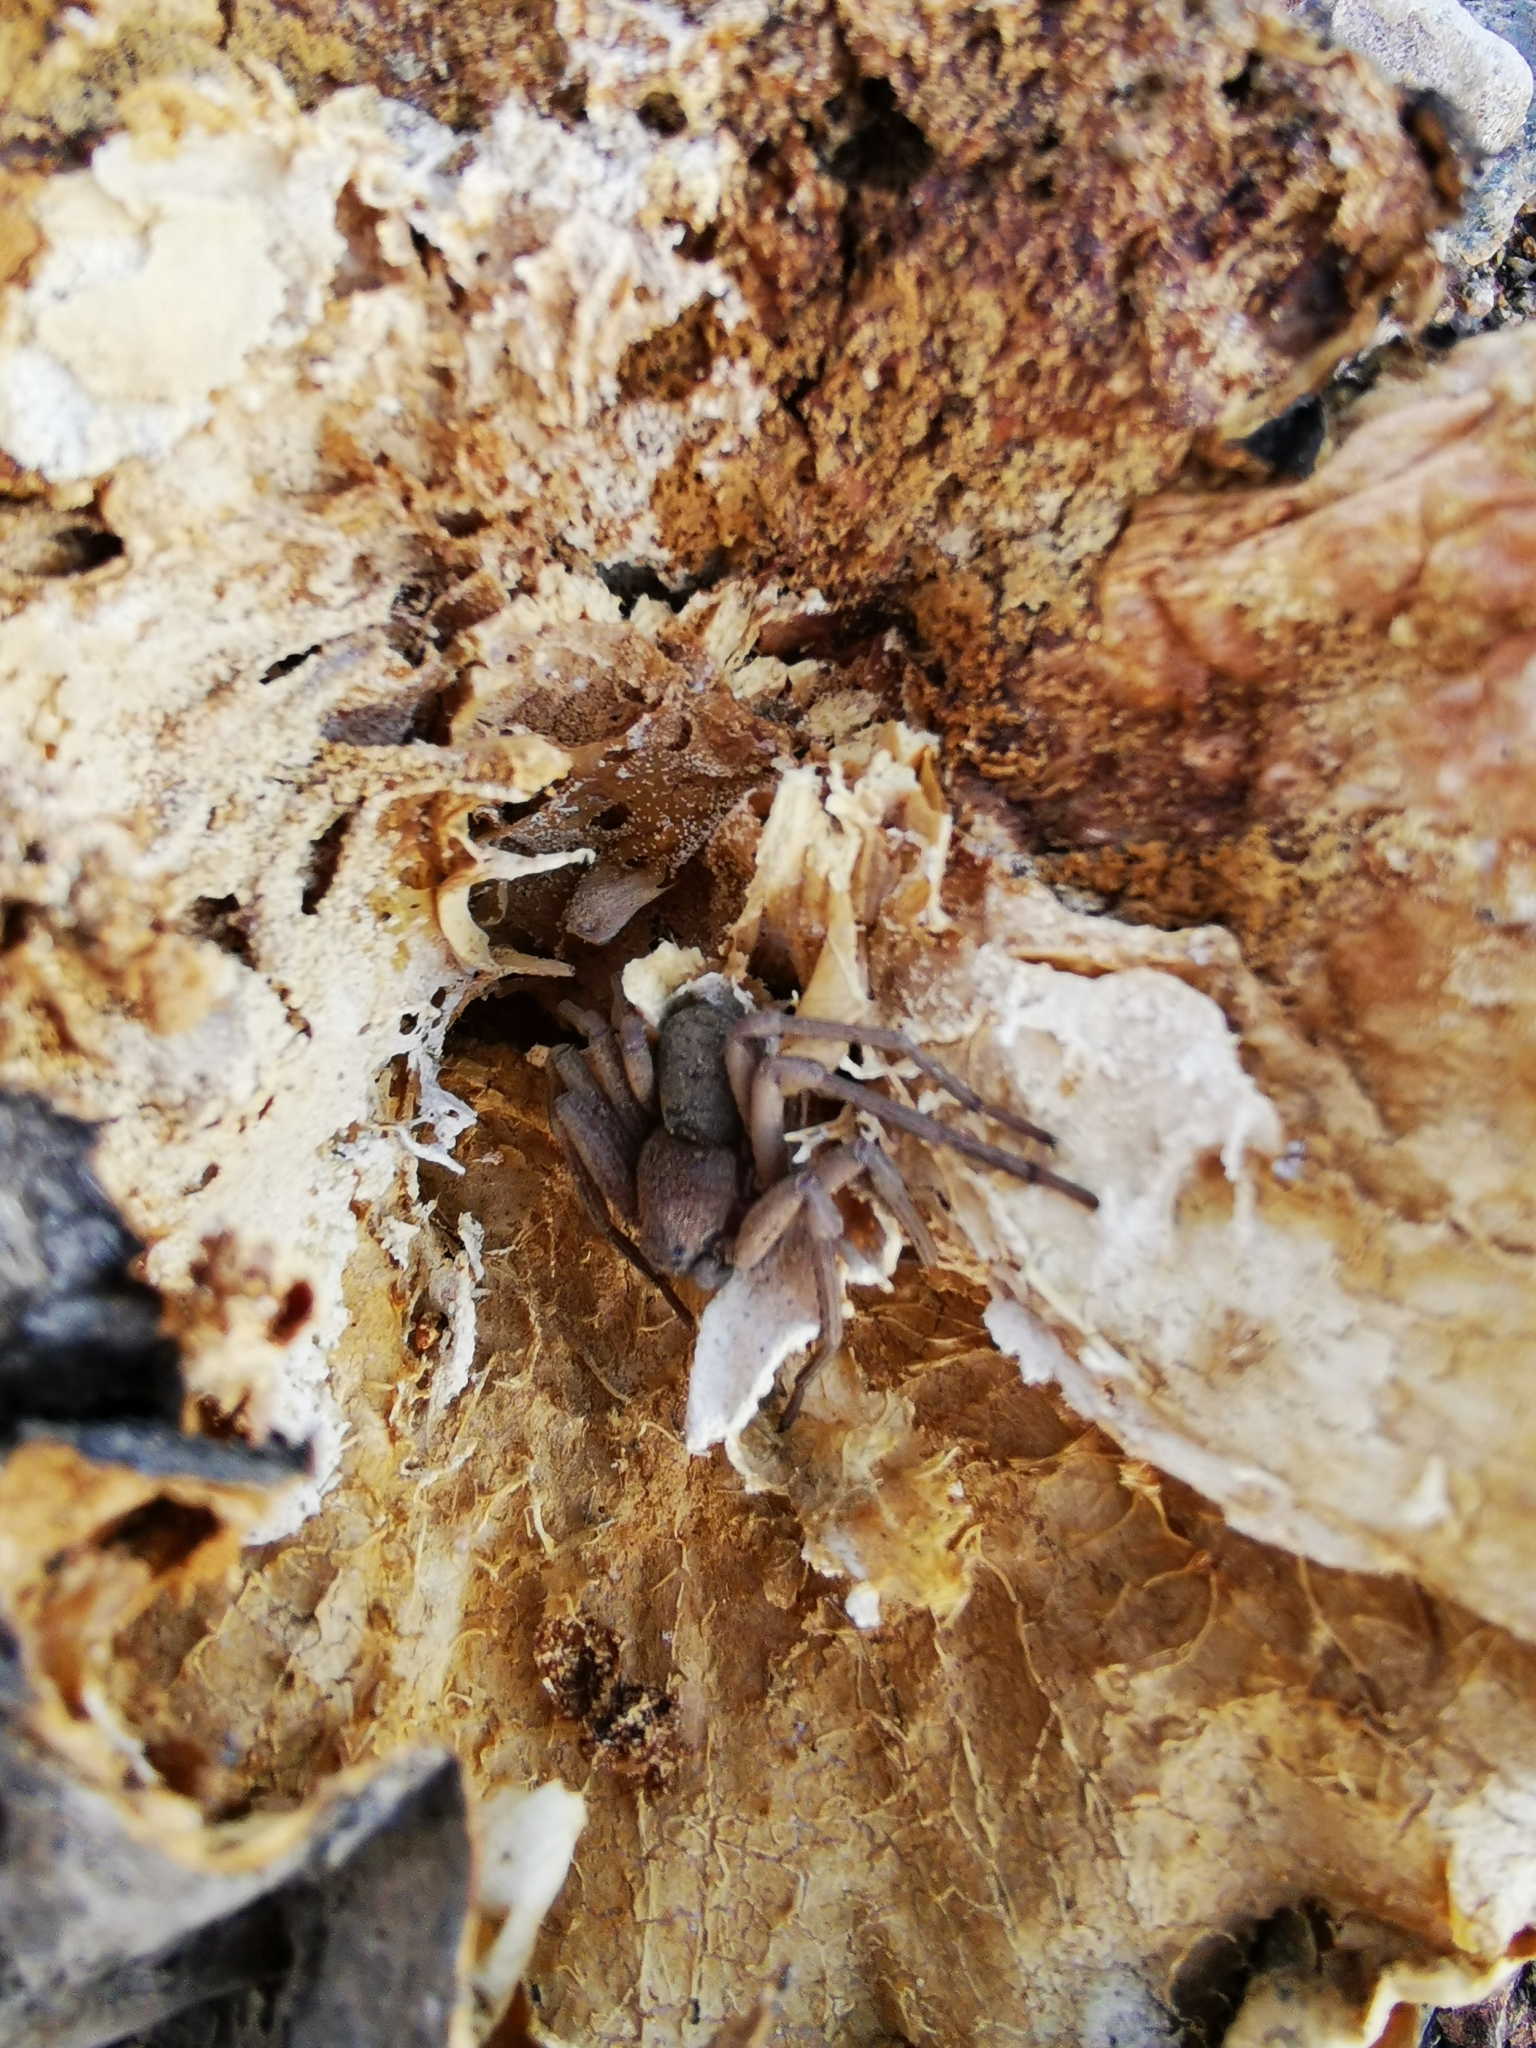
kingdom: Animalia
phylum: Arthropoda
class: Arachnida
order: Araneae
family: Sicariidae
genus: Sicarius
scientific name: Sicarius thomisoides
